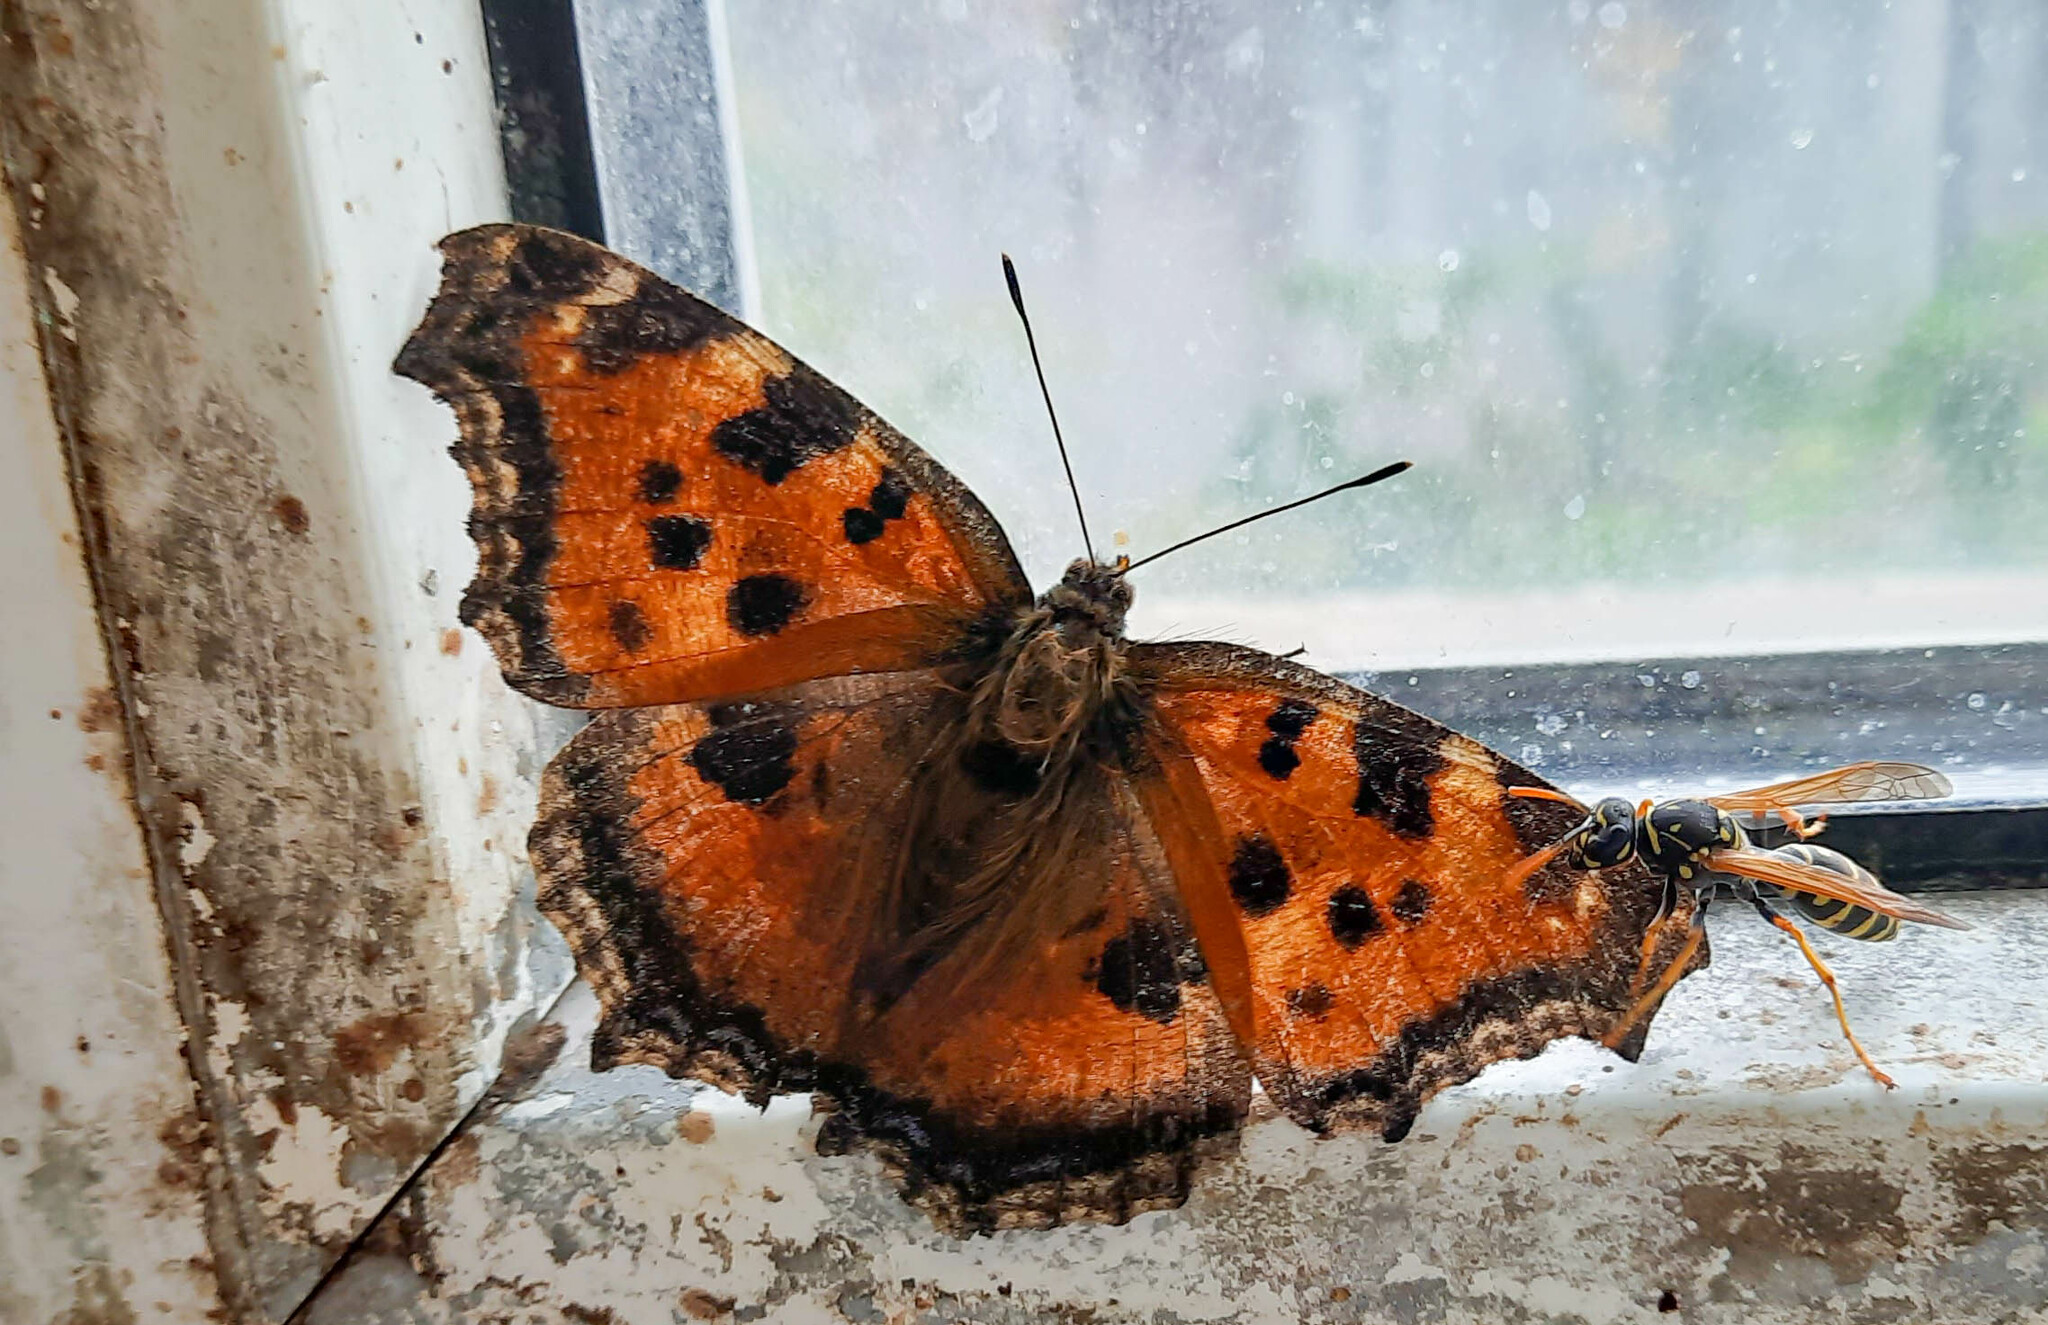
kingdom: Animalia
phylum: Arthropoda
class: Insecta
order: Lepidoptera
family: Nymphalidae
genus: Nymphalis
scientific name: Nymphalis xanthomelas
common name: Scarce tortoiseshell
